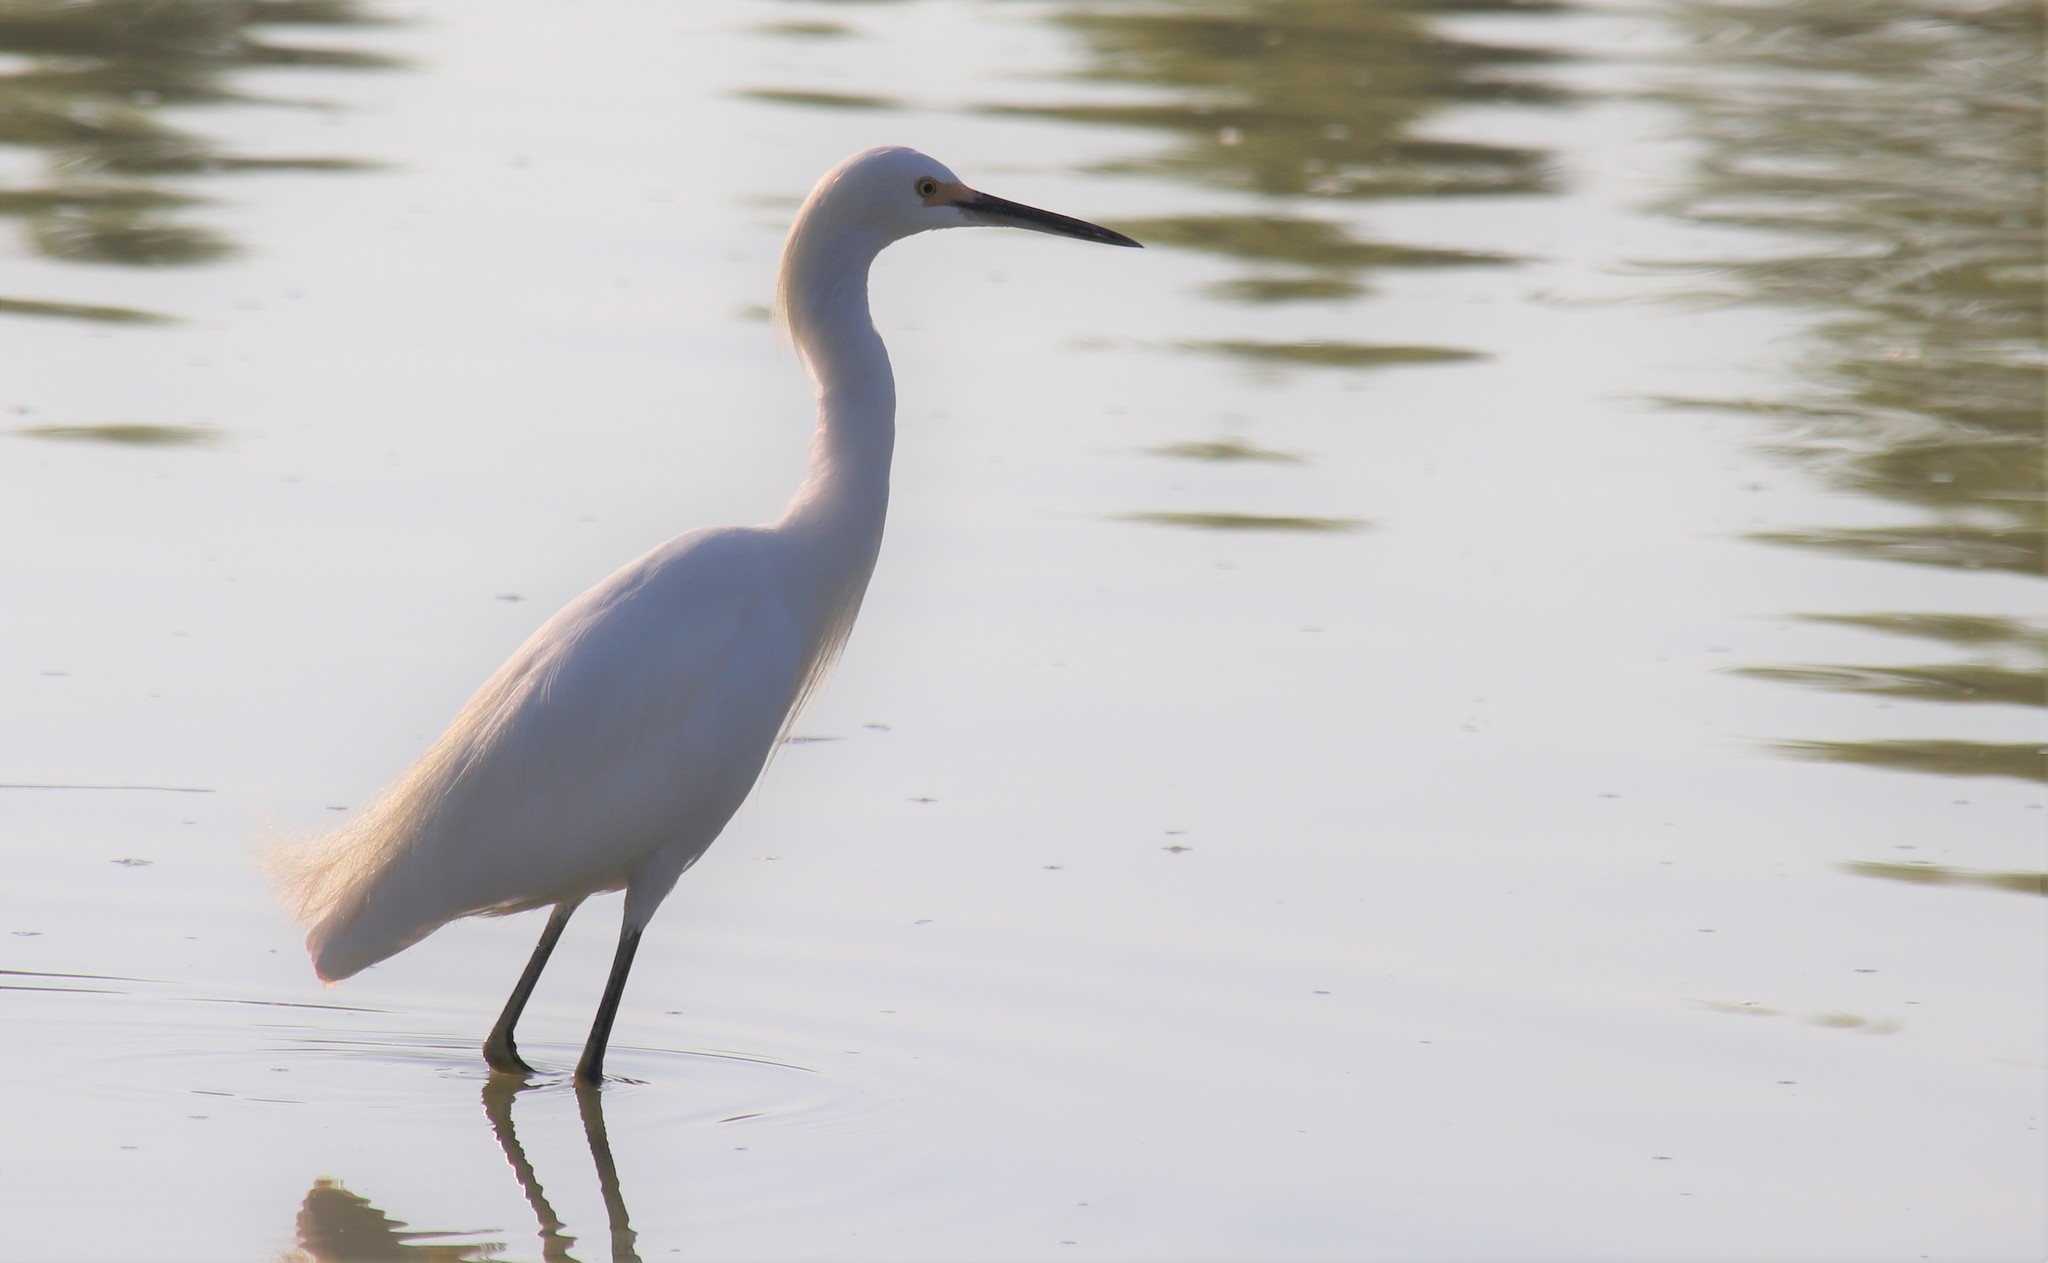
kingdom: Animalia
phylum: Chordata
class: Aves
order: Pelecaniformes
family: Ardeidae
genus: Egretta
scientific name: Egretta thula
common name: Snowy egret
